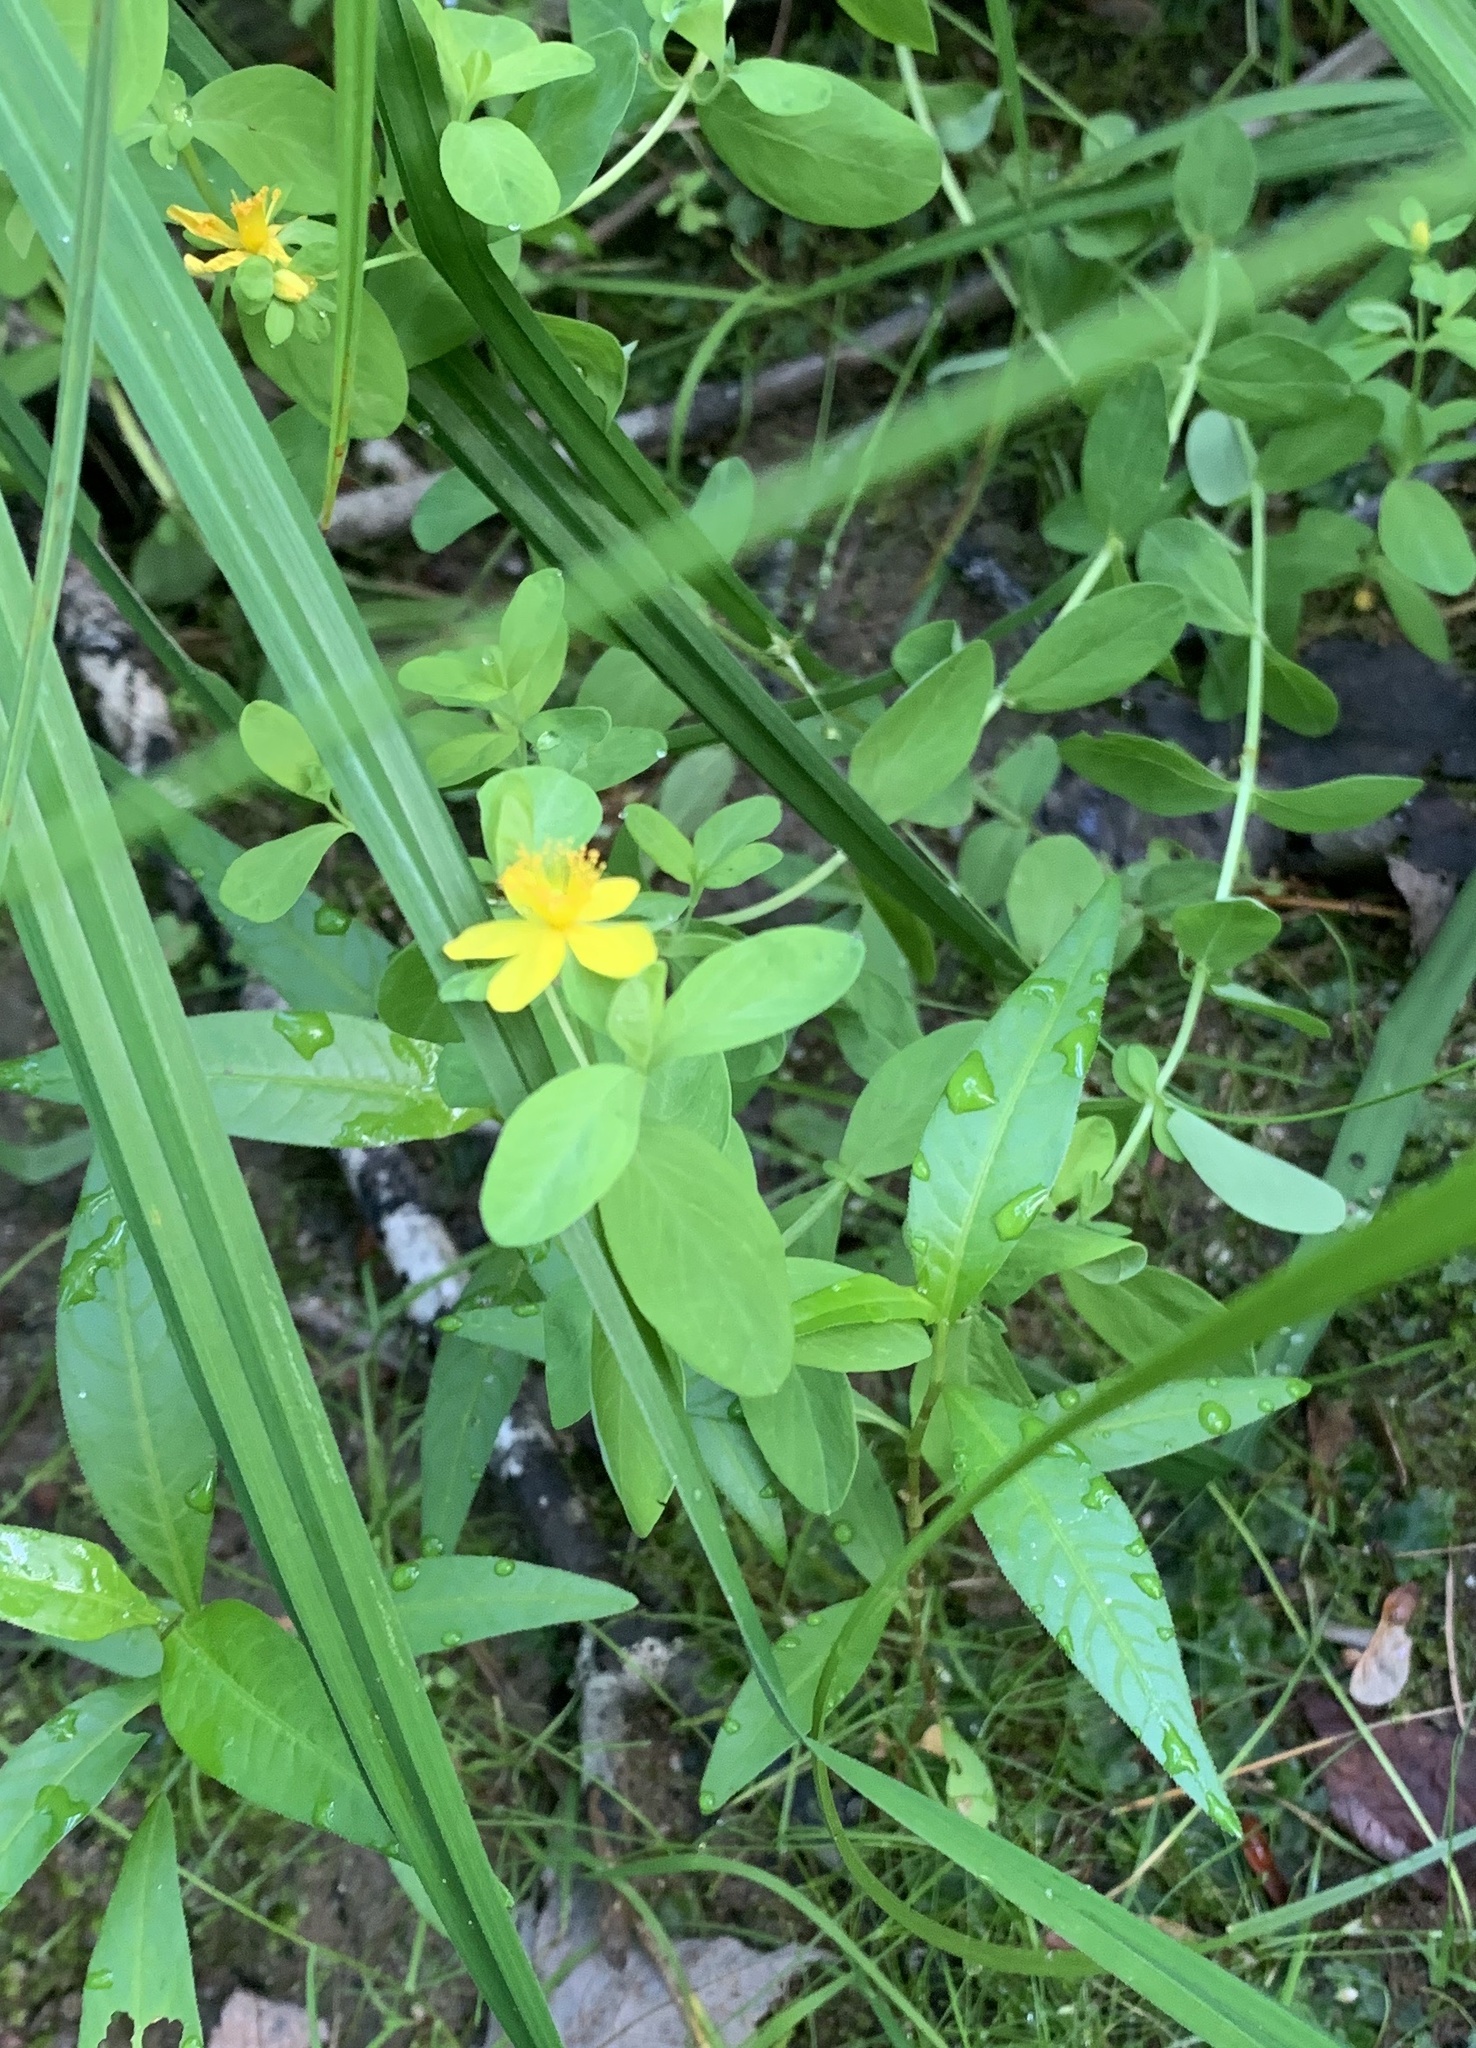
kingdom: Plantae
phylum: Tracheophyta
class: Magnoliopsida
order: Malpighiales
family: Hypericaceae
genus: Hypericum
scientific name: Hypericum ellipticum
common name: Elliptic st. john's-wort
